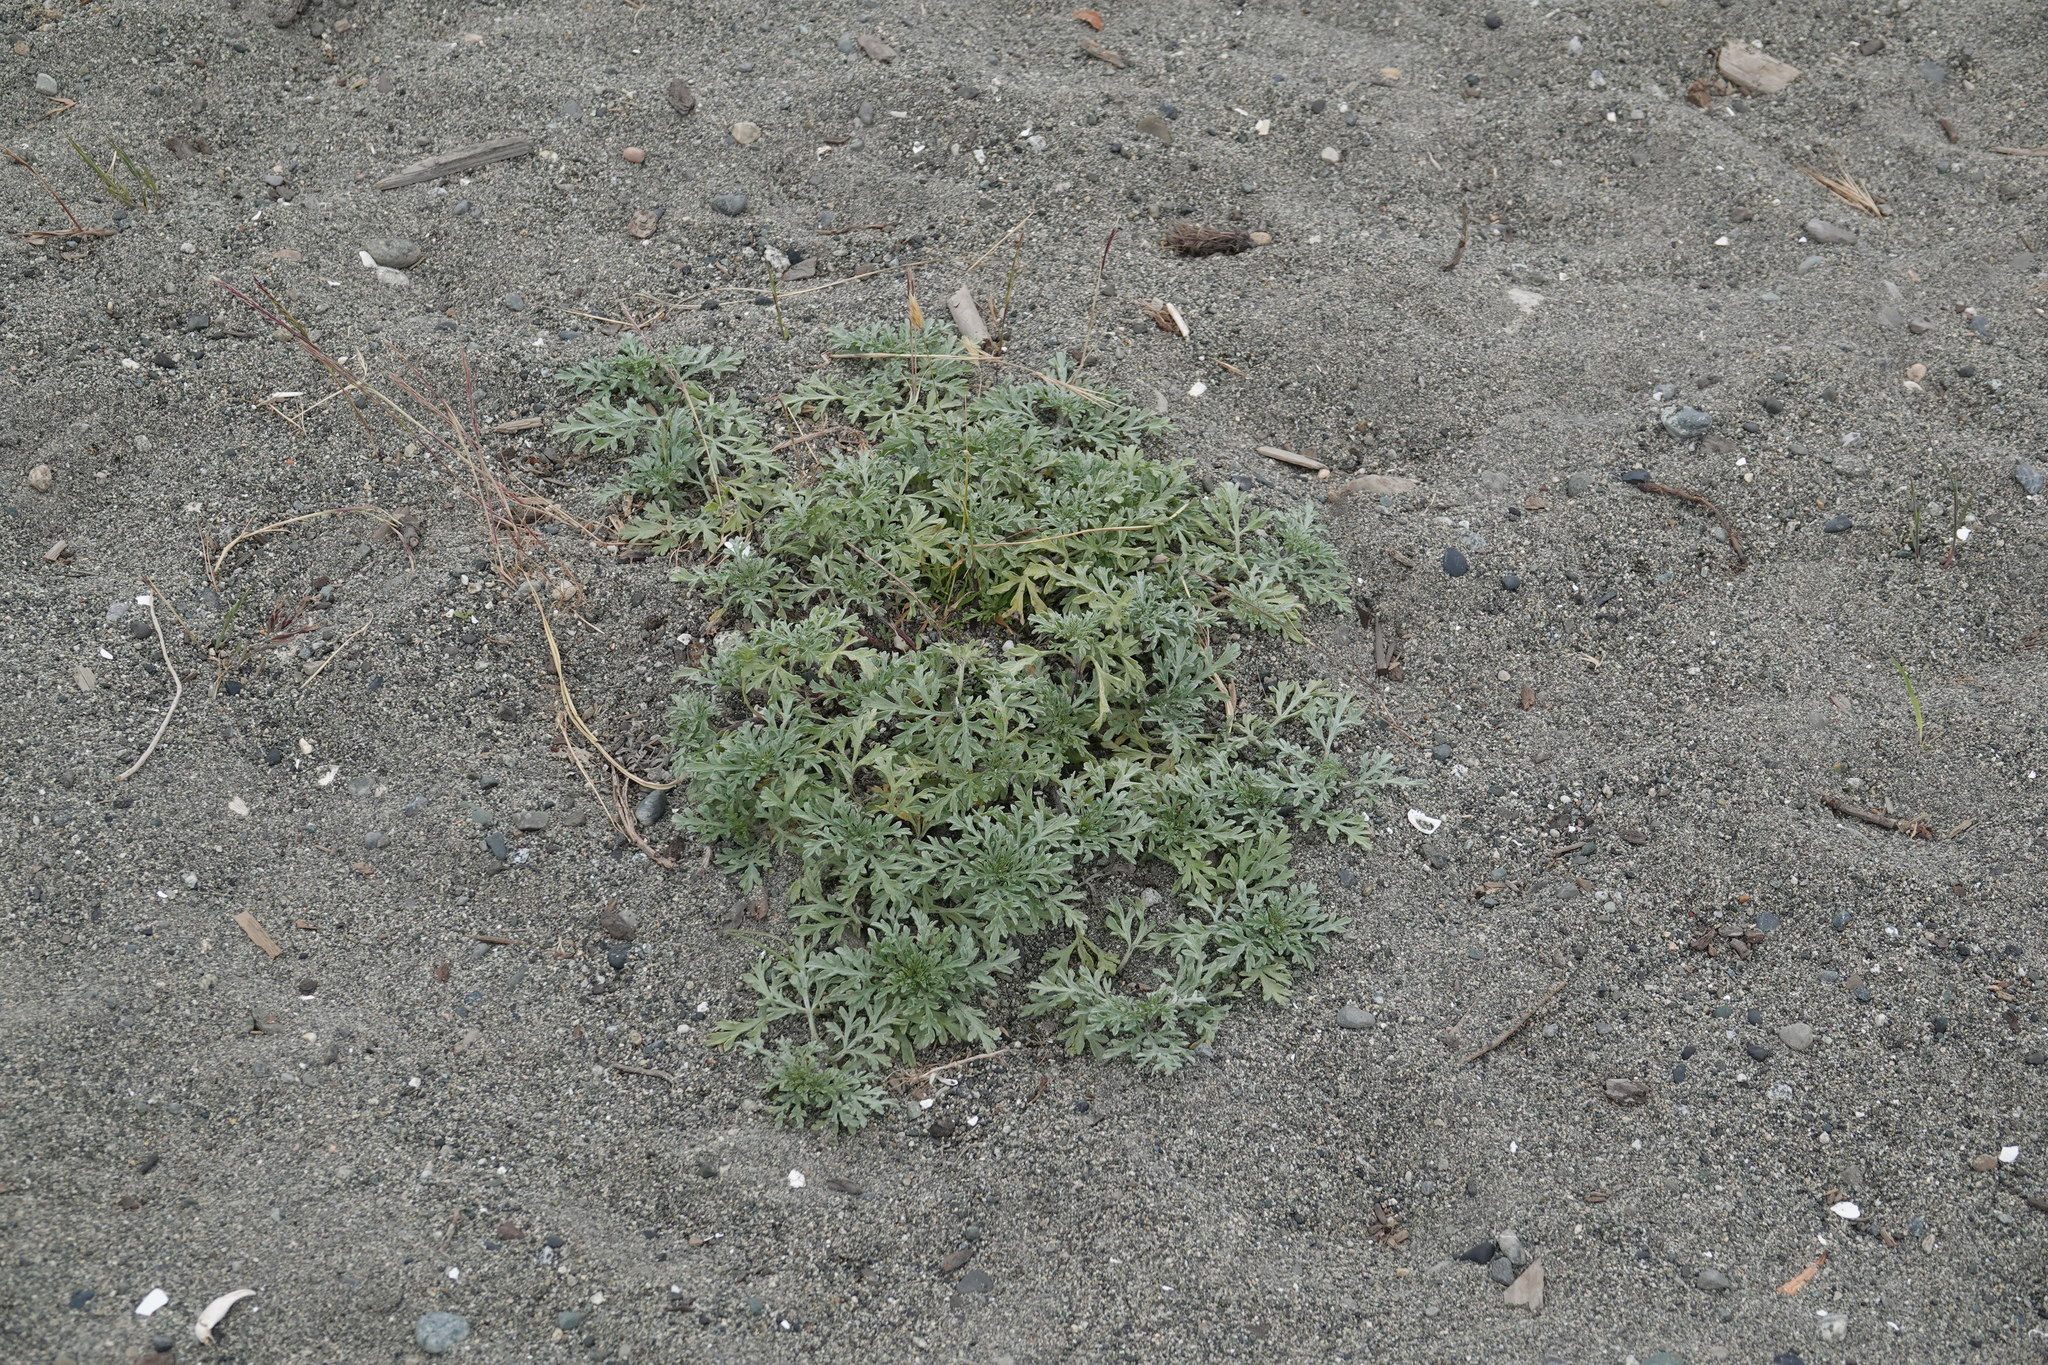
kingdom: Plantae
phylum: Tracheophyta
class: Magnoliopsida
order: Asterales
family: Asteraceae
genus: Ambrosia
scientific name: Ambrosia chamissonis
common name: Beachbur
